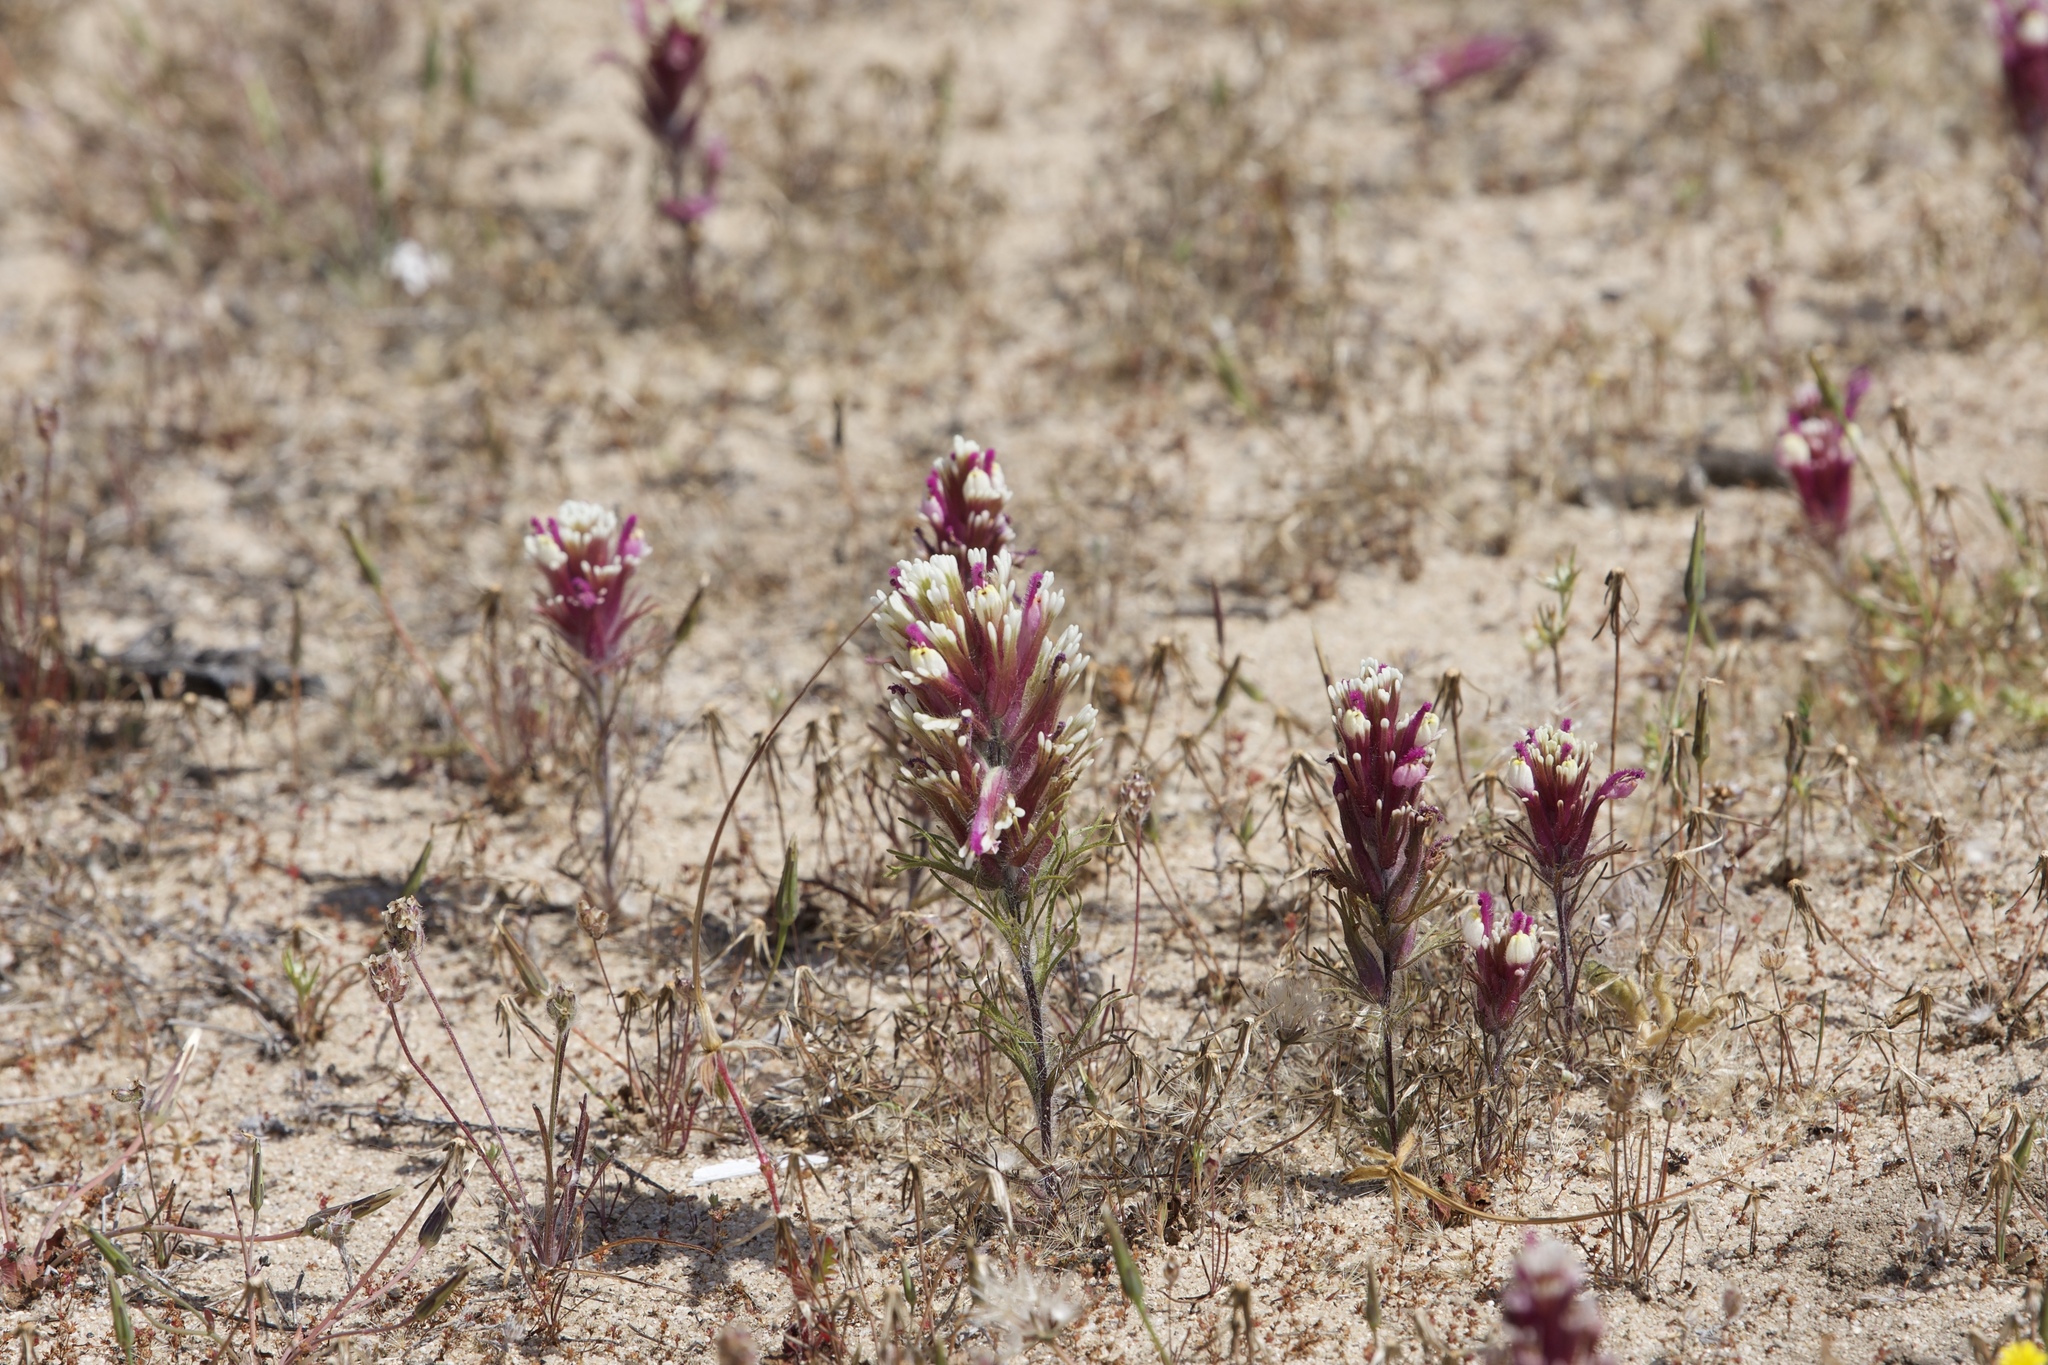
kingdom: Plantae
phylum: Tracheophyta
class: Magnoliopsida
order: Lamiales
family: Orobanchaceae
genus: Castilleja
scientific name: Castilleja exserta
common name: Purple owl-clover
